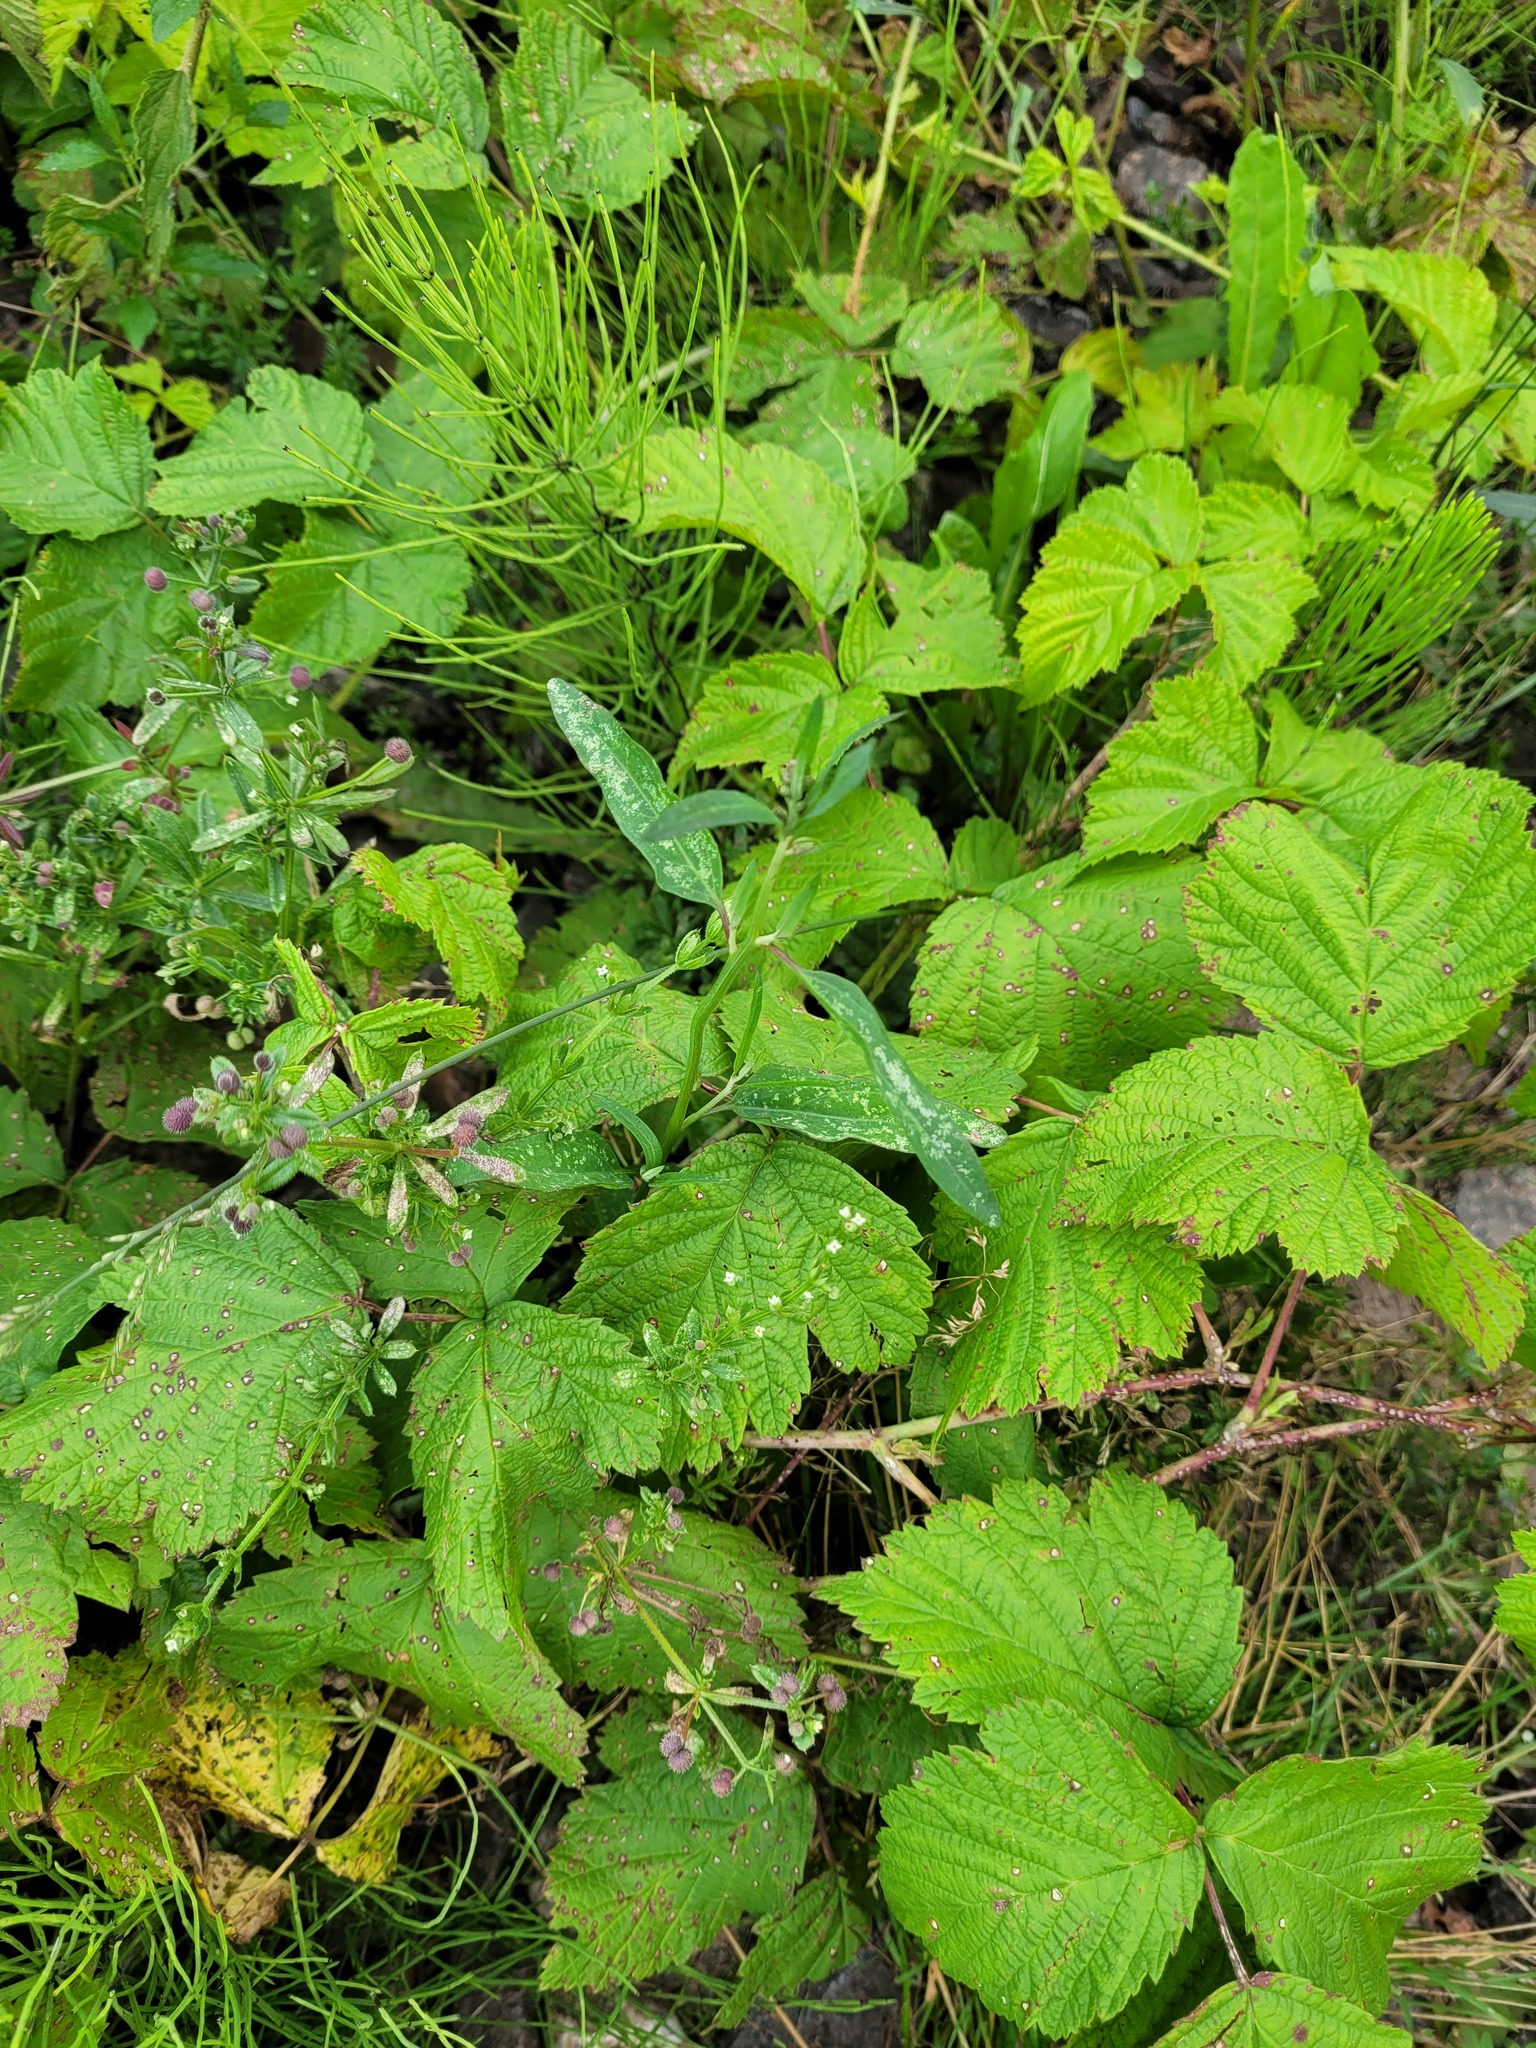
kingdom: Plantae
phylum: Tracheophyta
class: Magnoliopsida
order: Caryophyllales
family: Amaranthaceae
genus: Atriplex
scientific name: Atriplex patula
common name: Common orache
